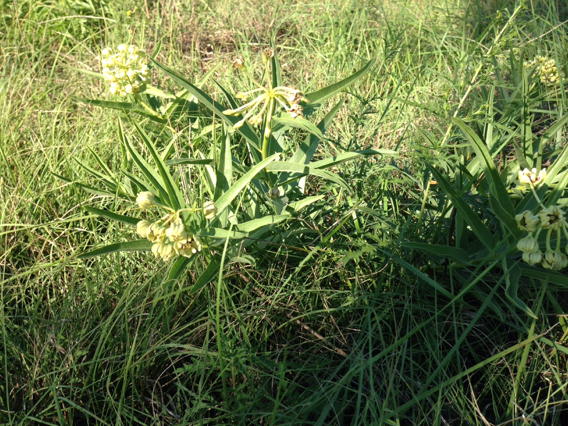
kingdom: Plantae
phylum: Tracheophyta
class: Magnoliopsida
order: Gentianales
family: Apocynaceae
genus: Asclepias
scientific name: Asclepias asperula
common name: Antelope horns
